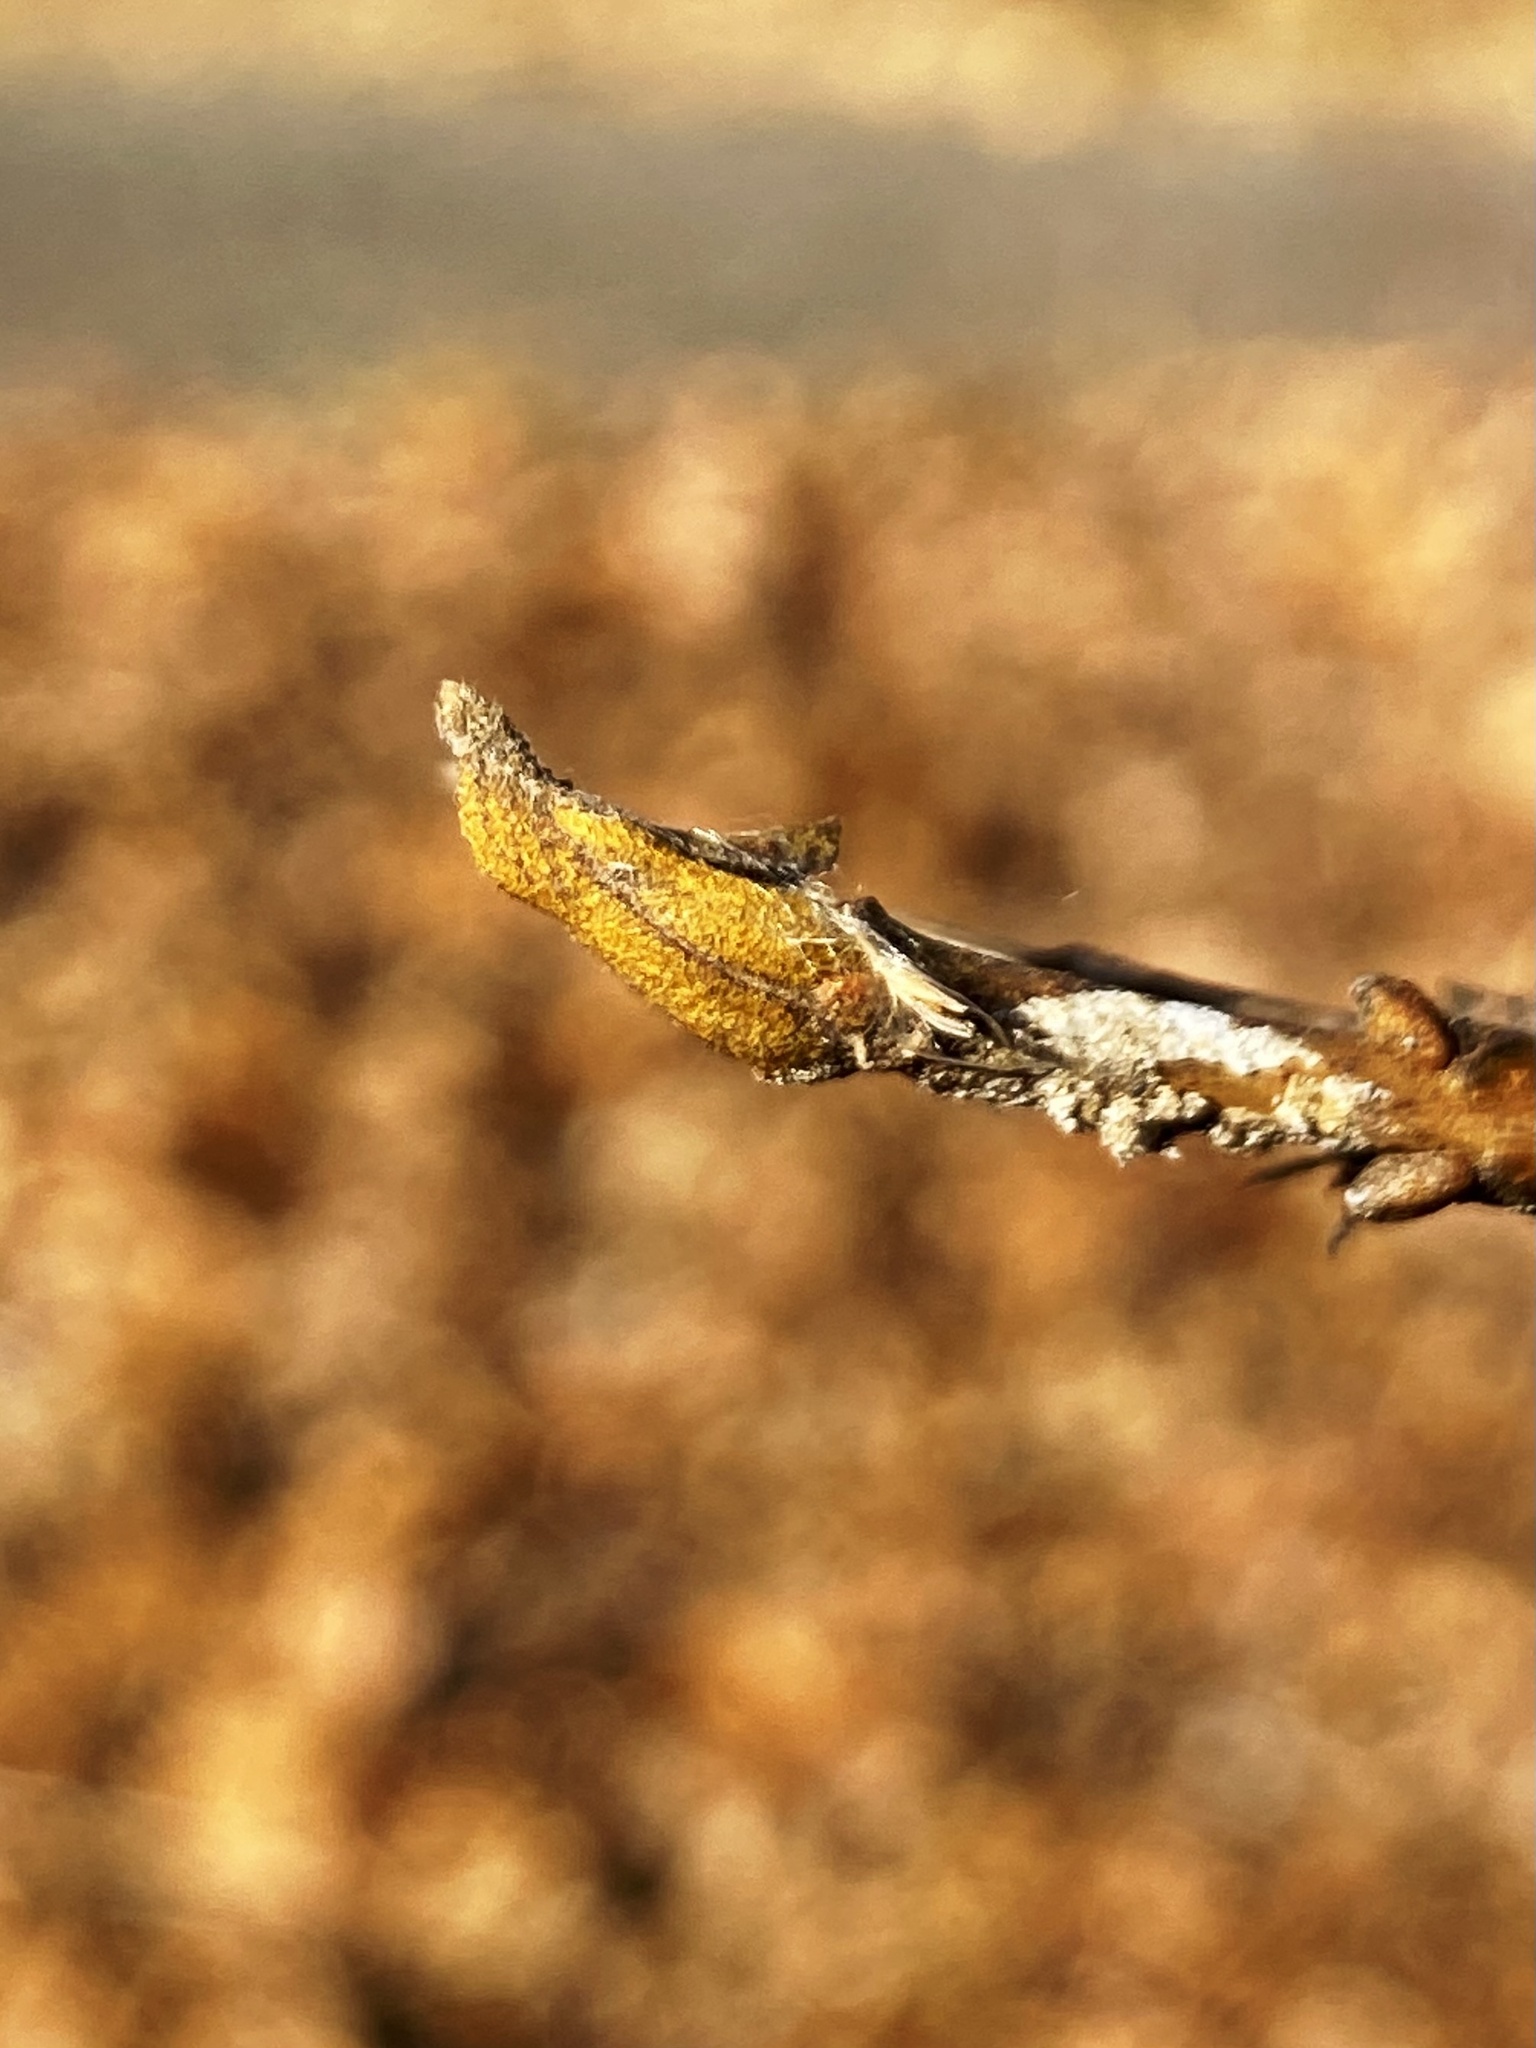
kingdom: Plantae
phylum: Tracheophyta
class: Magnoliopsida
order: Fagales
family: Juglandaceae
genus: Carya
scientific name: Carya cordiformis
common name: Bitternut hickory
